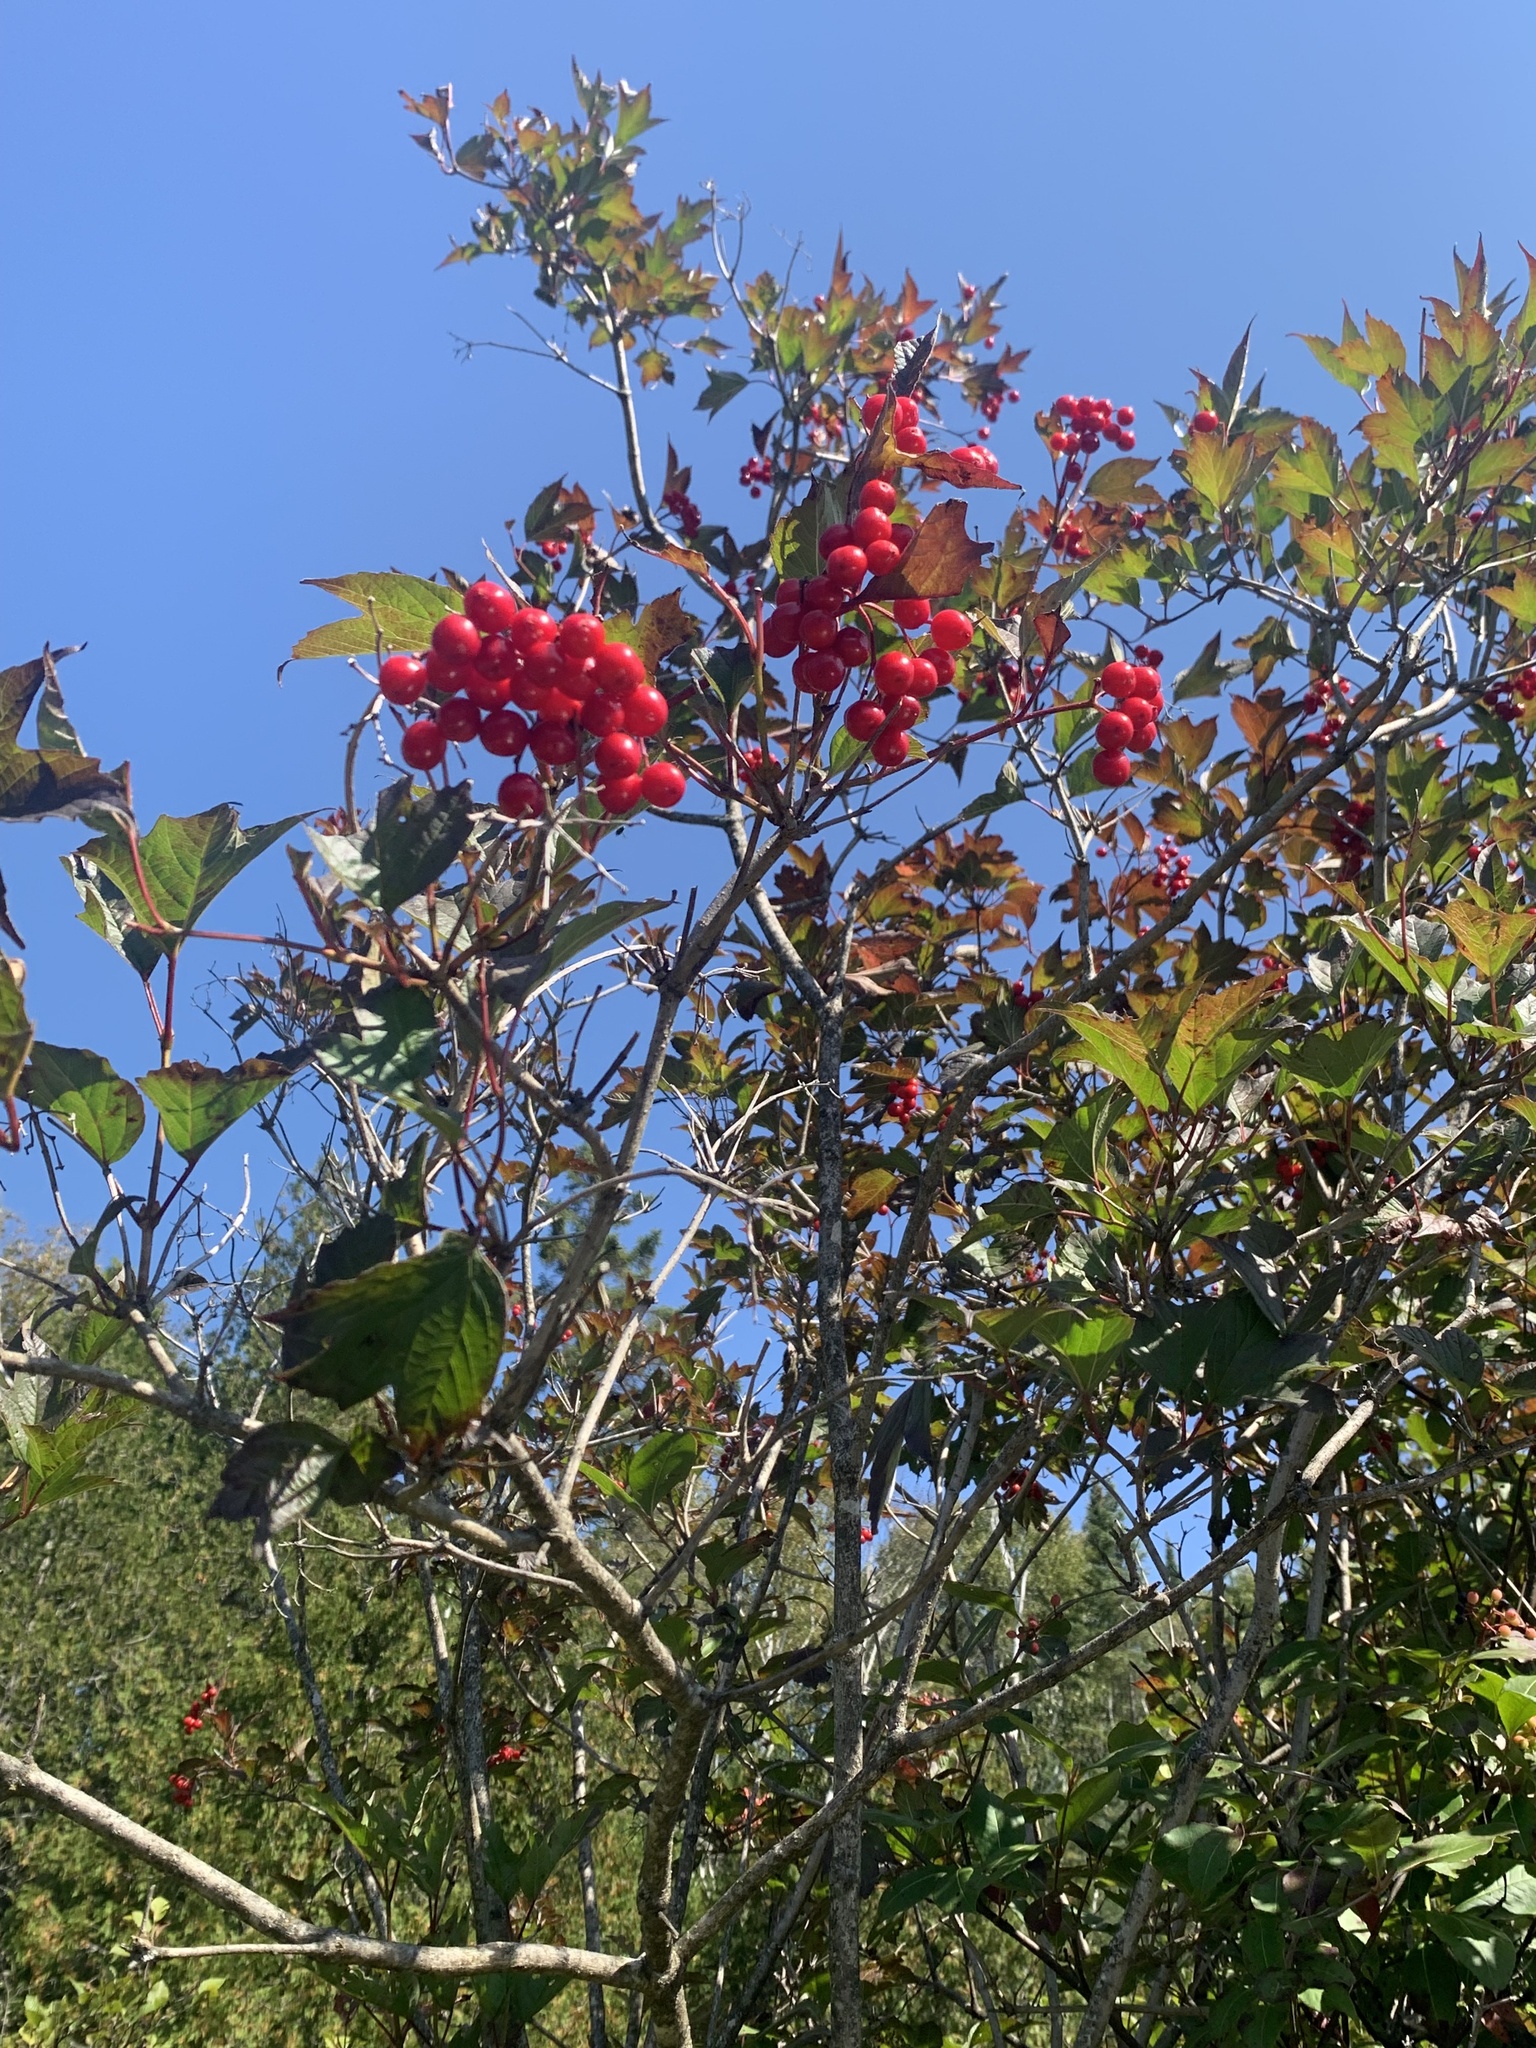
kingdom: Plantae
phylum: Tracheophyta
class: Magnoliopsida
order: Dipsacales
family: Viburnaceae
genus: Viburnum
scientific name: Viburnum trilobum
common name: American cranberrybush
